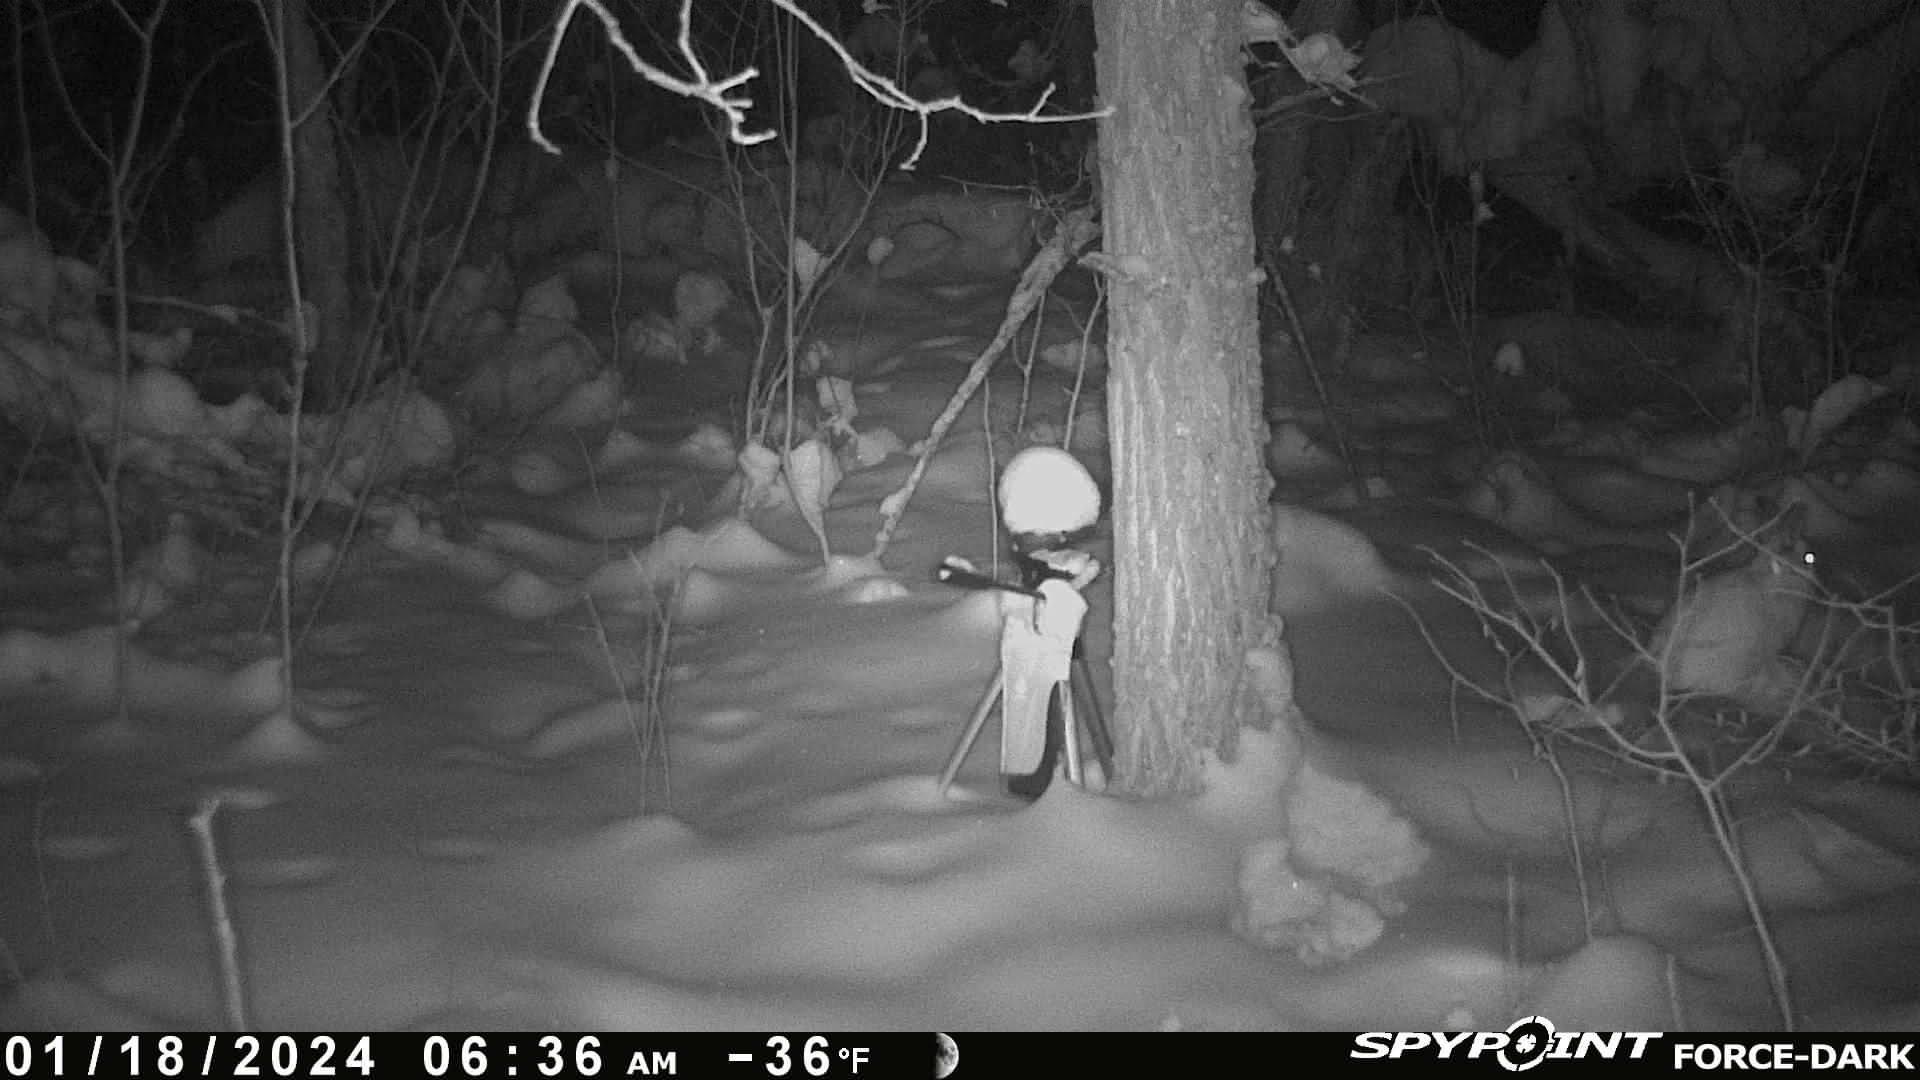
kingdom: Animalia
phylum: Chordata
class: Mammalia
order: Lagomorpha
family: Leporidae
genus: Lepus
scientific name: Lepus americanus
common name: Snowshoe hare
